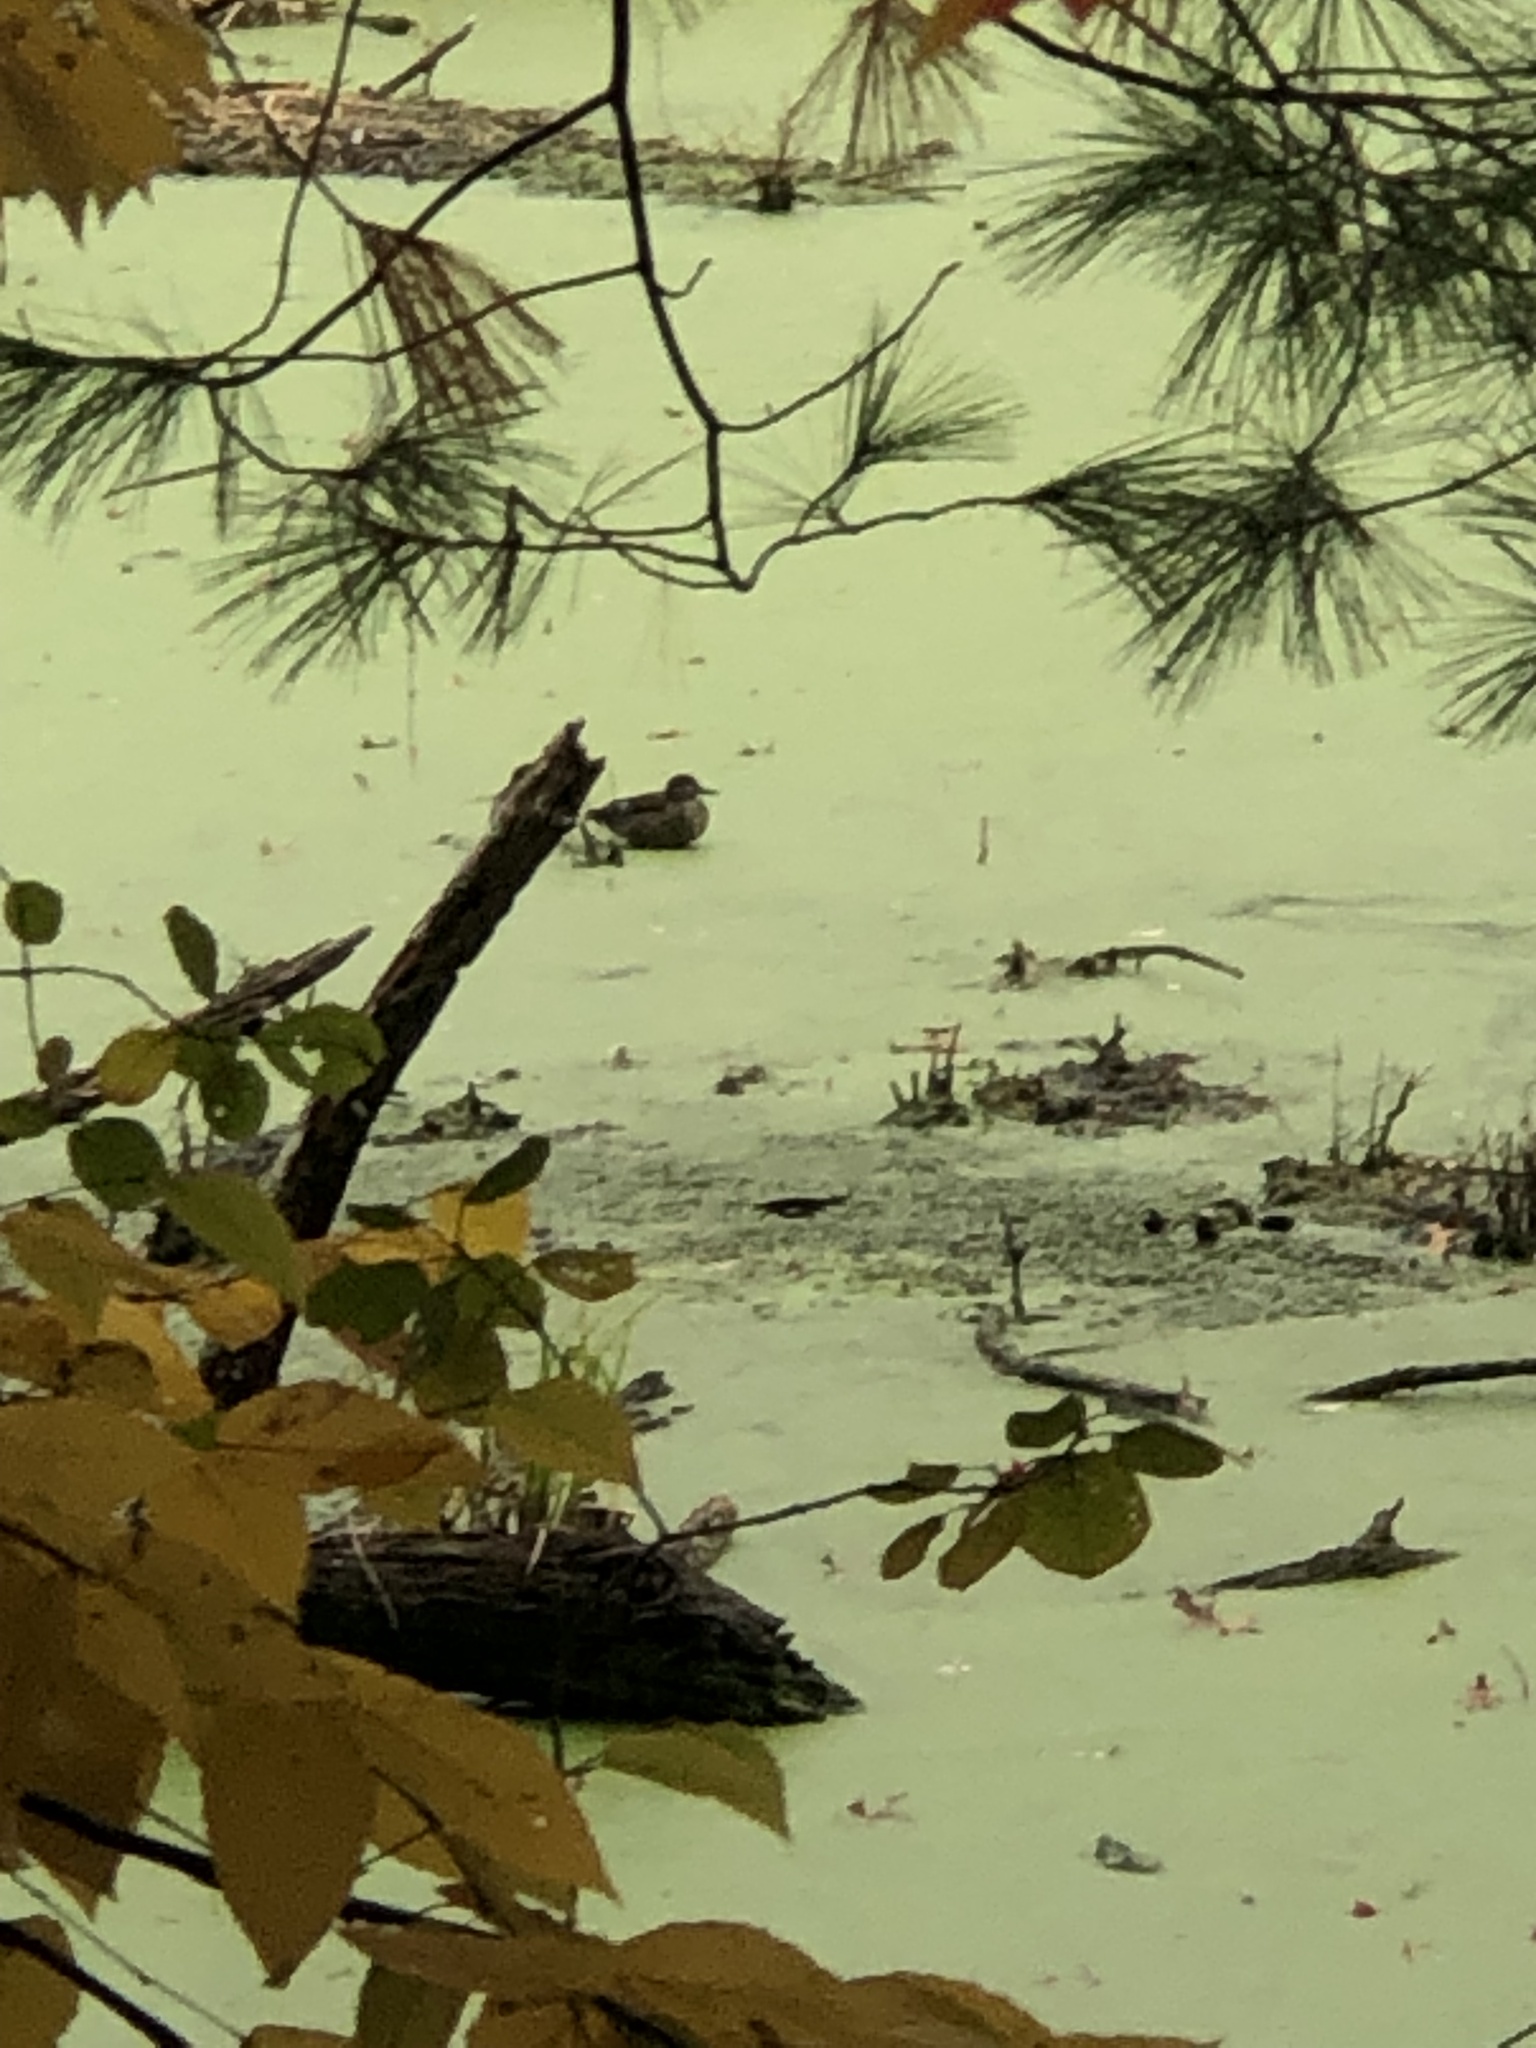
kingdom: Animalia
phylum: Chordata
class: Aves
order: Anseriformes
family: Anatidae
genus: Anas
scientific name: Anas crecca
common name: Eurasian teal
